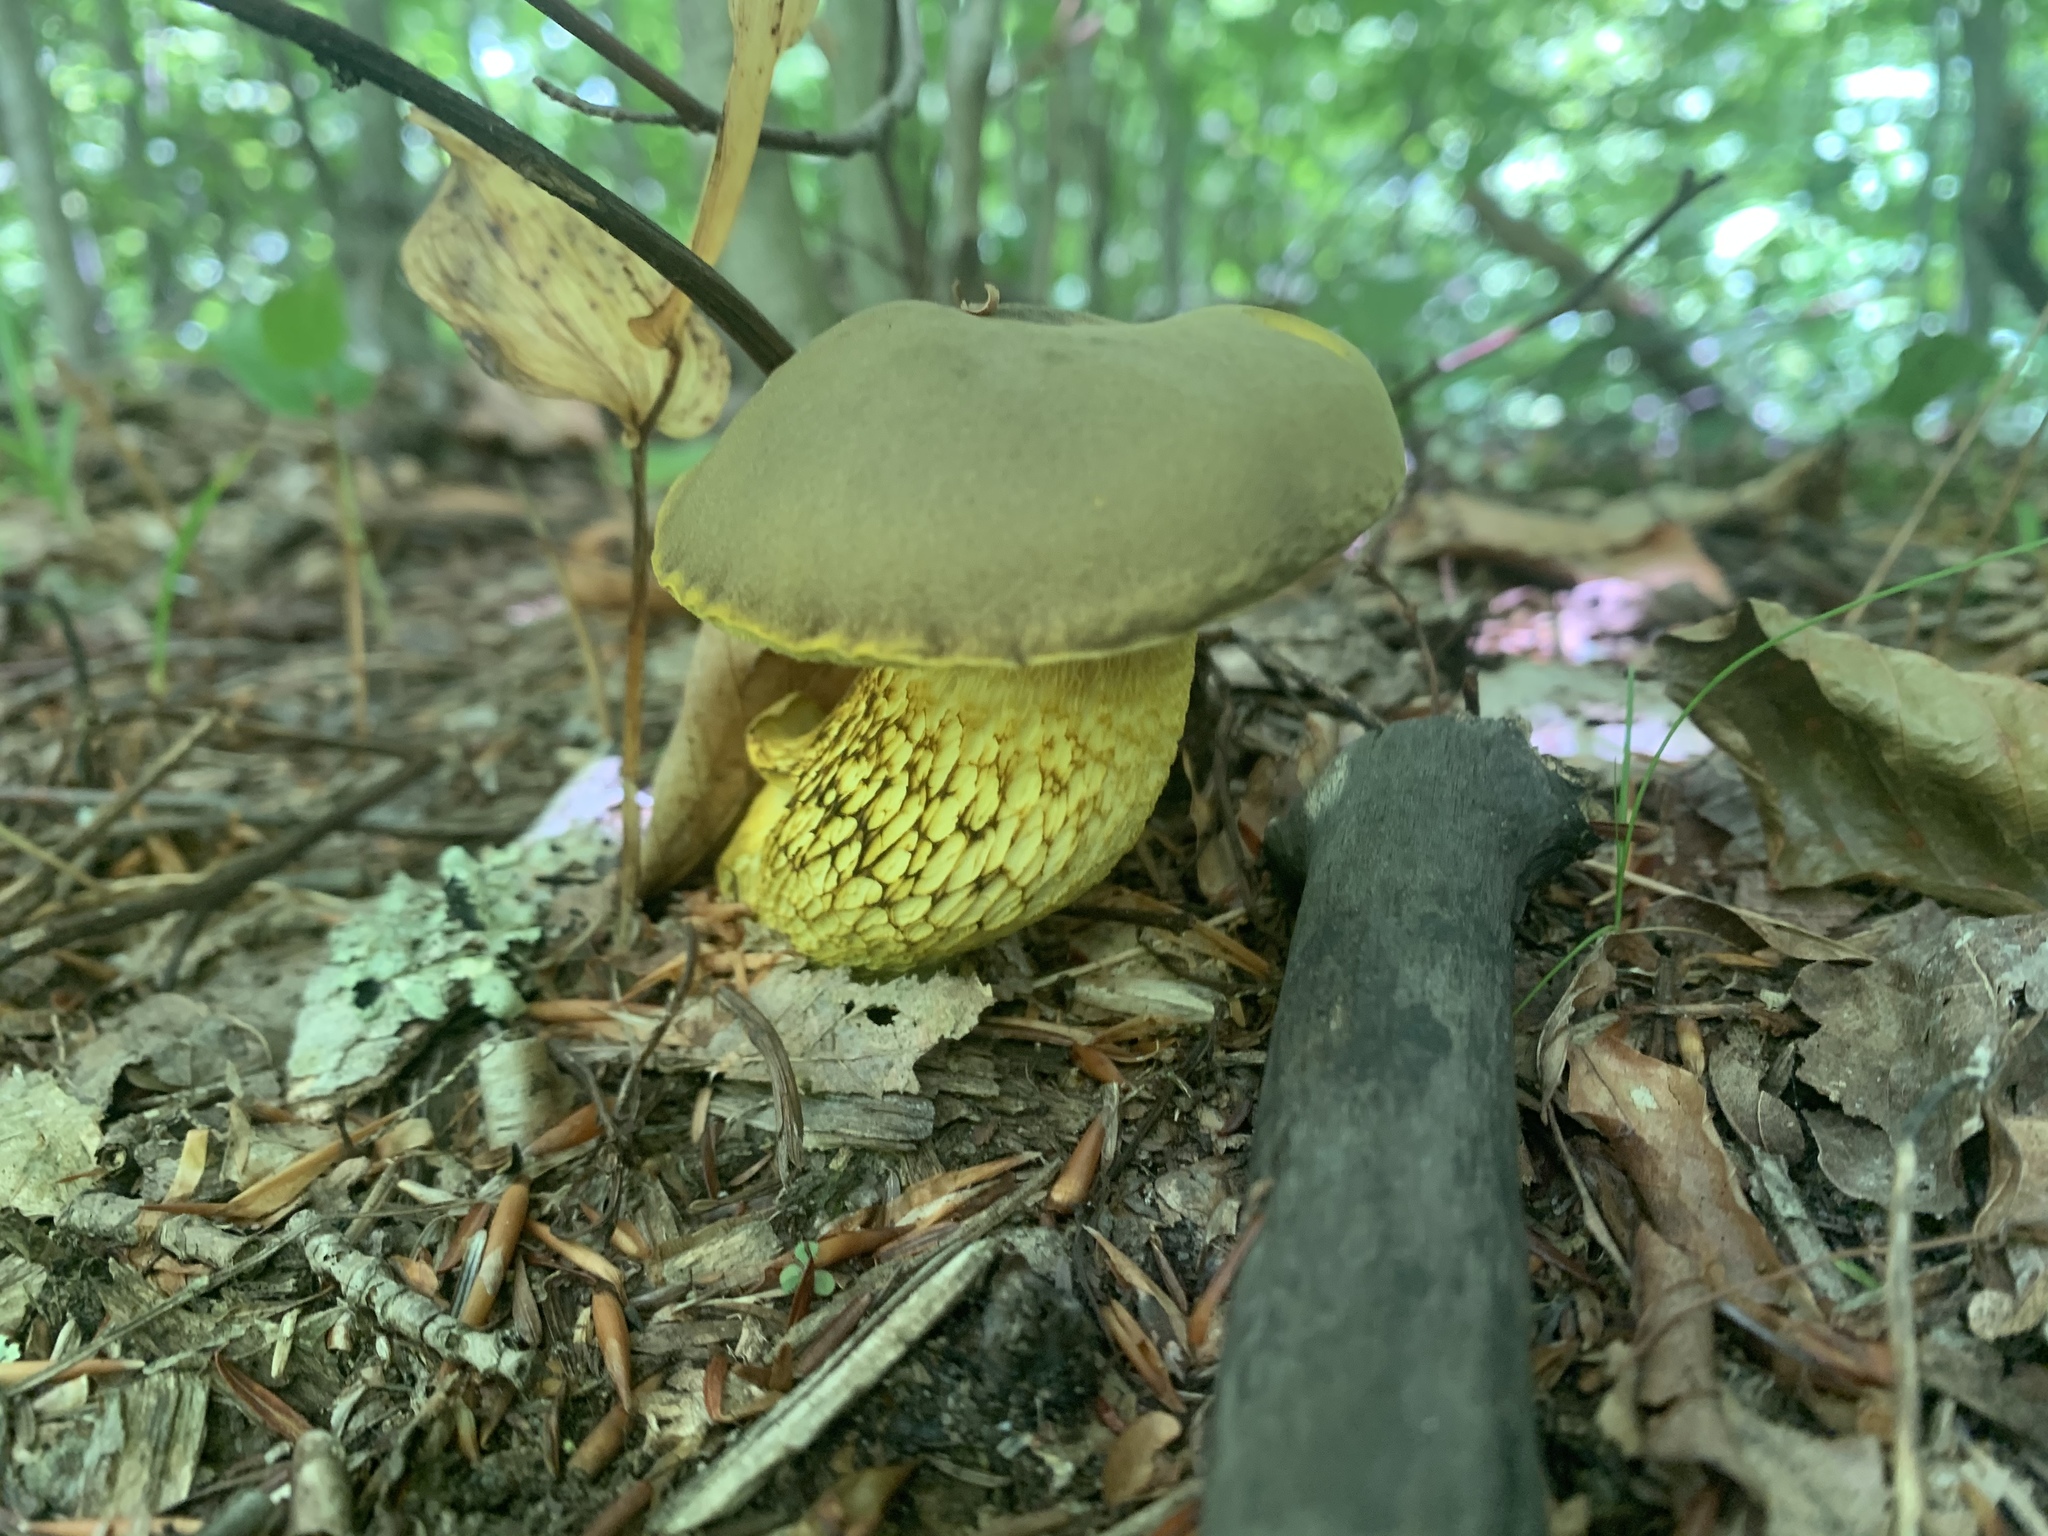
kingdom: Fungi
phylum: Basidiomycota
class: Agaricomycetes
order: Boletales
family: Boletaceae
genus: Retiboletus
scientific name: Retiboletus ornatipes
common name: Ornate-stalked bolete
